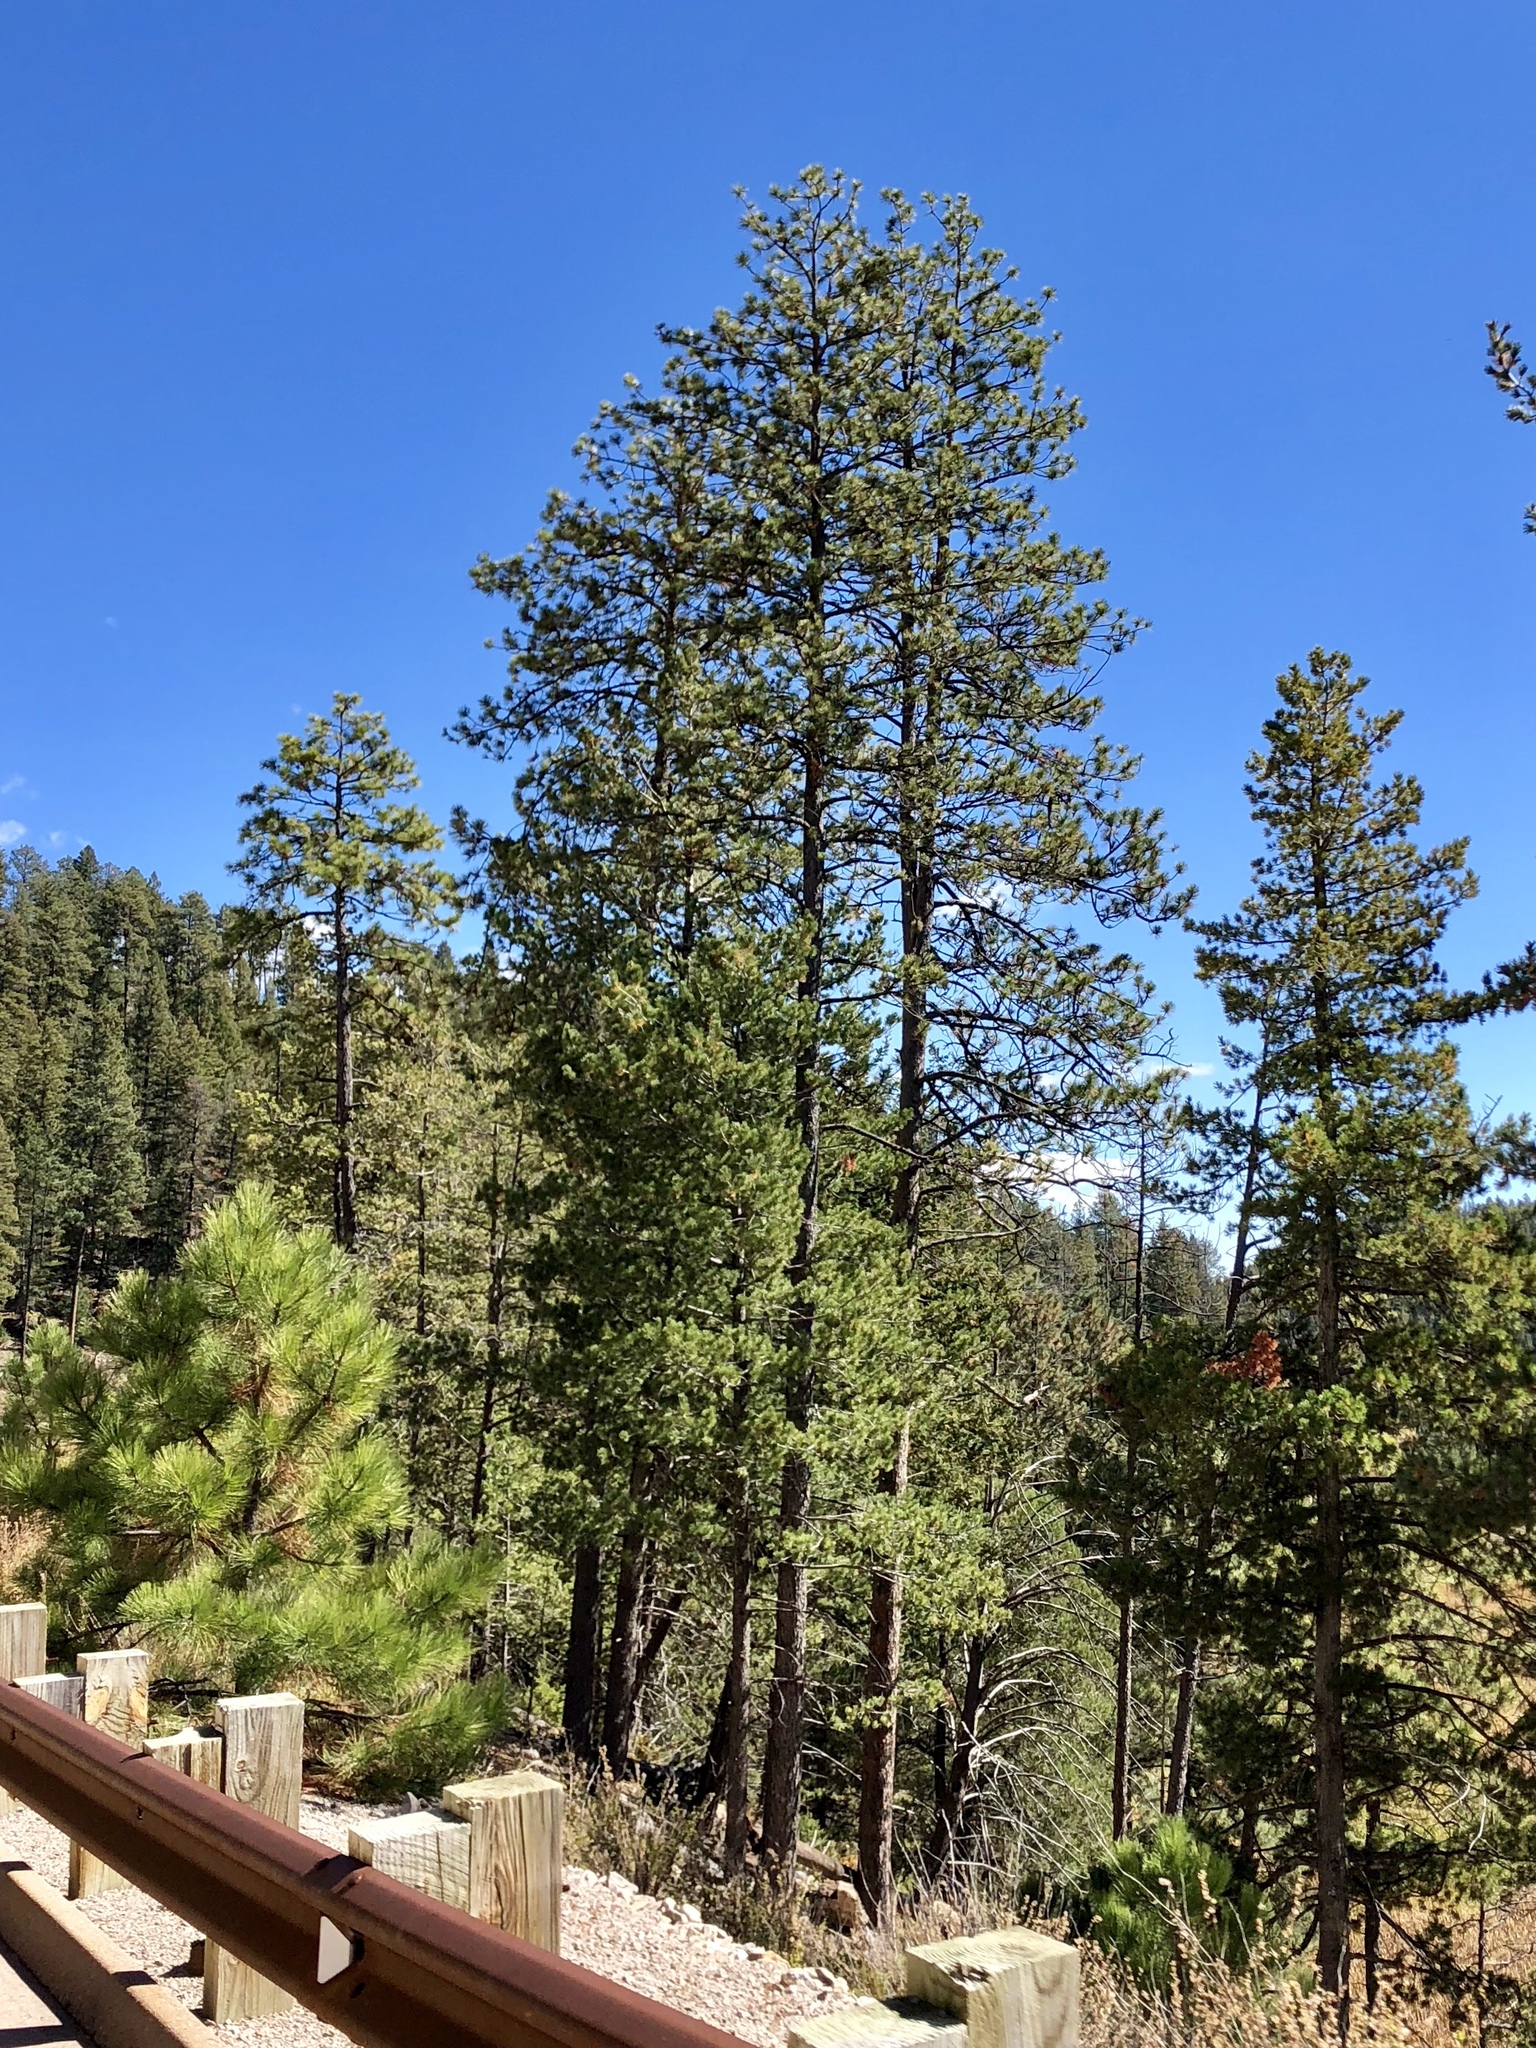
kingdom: Plantae
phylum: Tracheophyta
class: Pinopsida
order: Pinales
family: Pinaceae
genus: Pinus
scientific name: Pinus ponderosa
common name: Western yellow-pine
